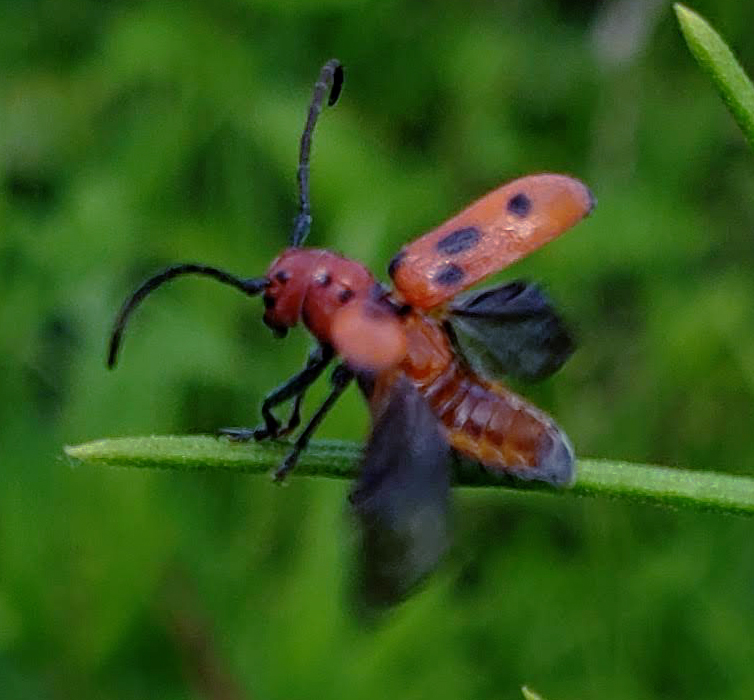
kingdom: Animalia
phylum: Arthropoda
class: Insecta
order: Coleoptera
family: Cerambycidae
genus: Tetraopes
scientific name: Tetraopes tetrophthalmus
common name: Red milkweed beetle
